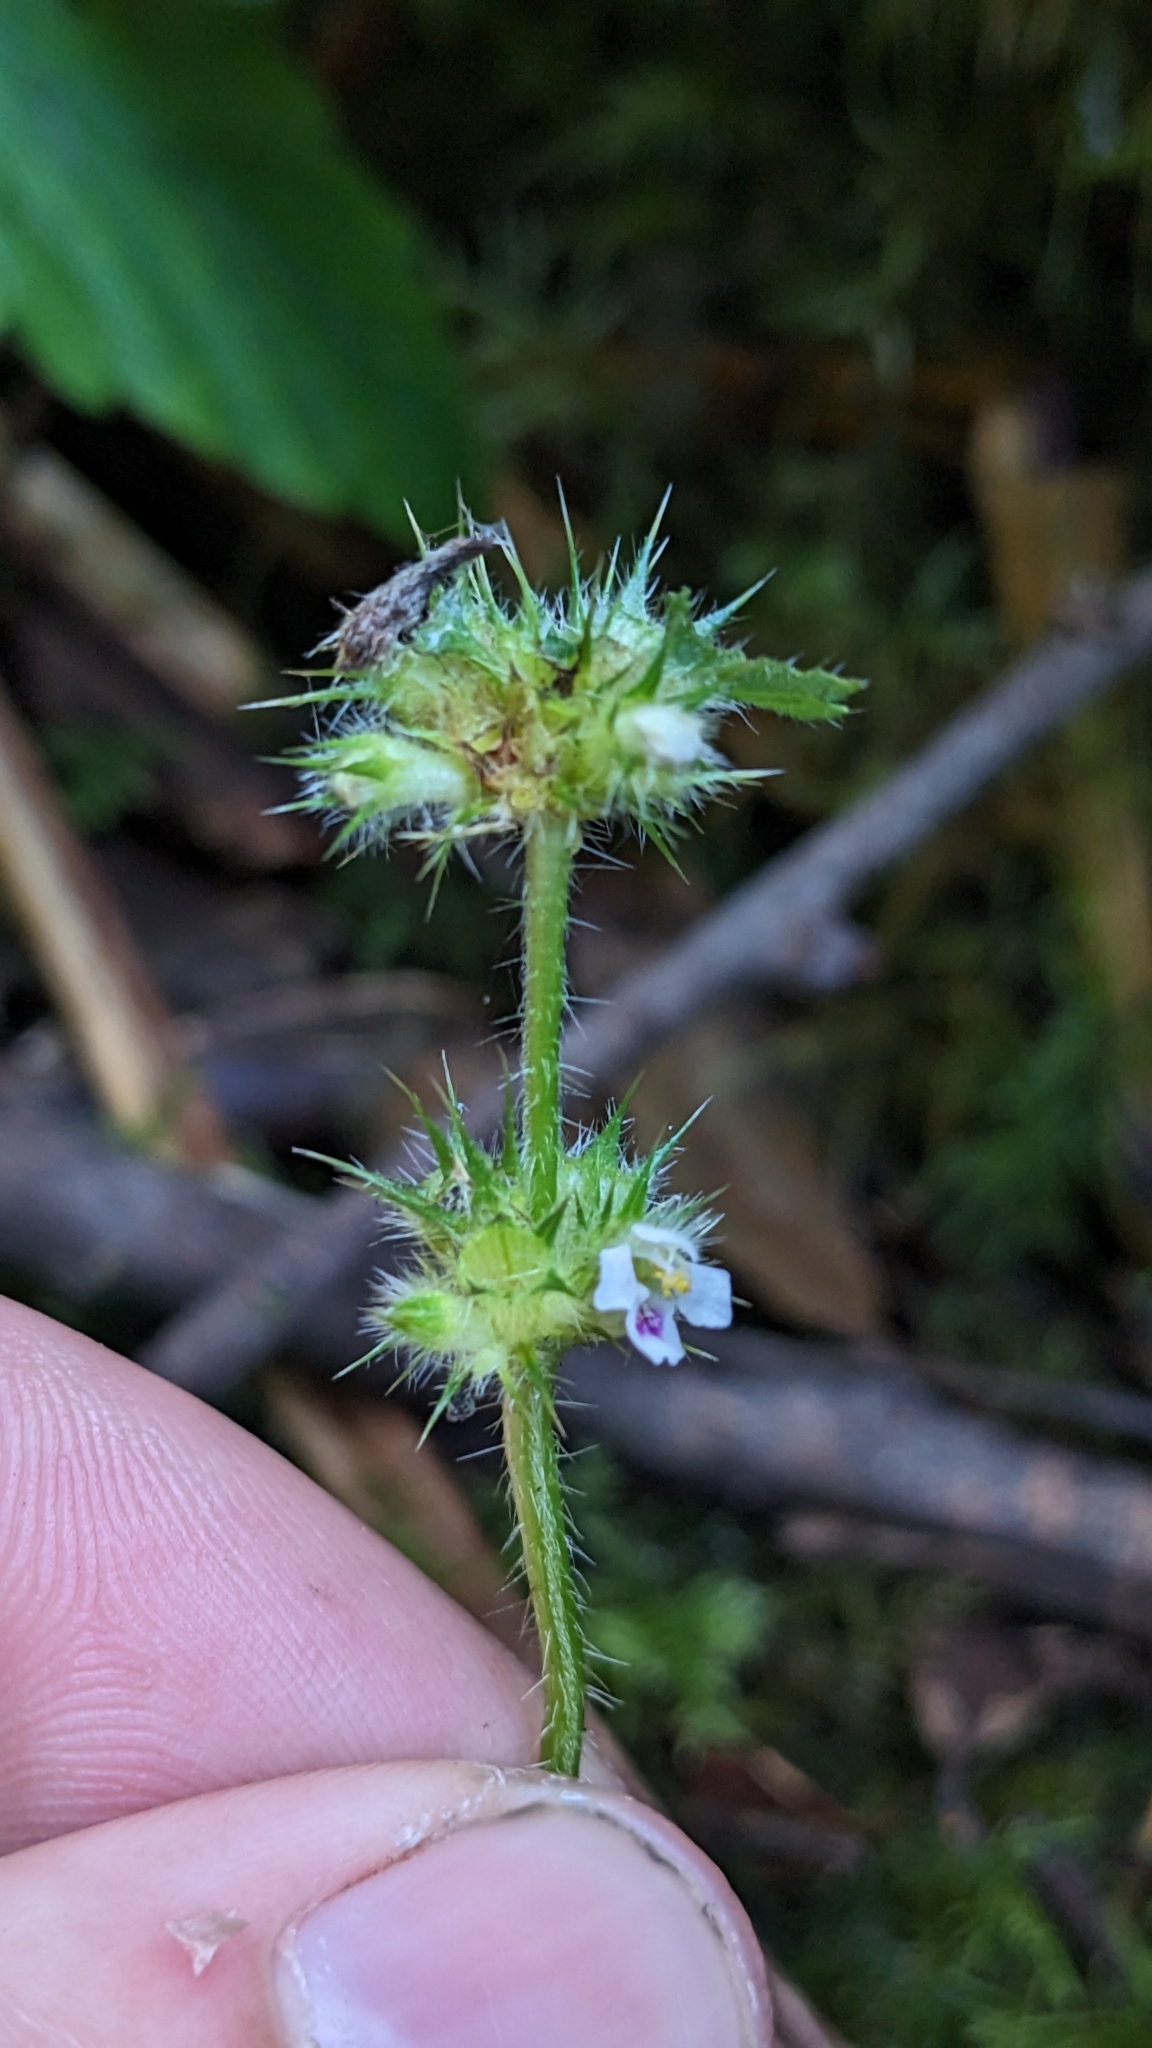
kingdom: Plantae
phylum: Tracheophyta
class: Magnoliopsida
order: Lamiales
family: Lamiaceae
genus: Galeopsis
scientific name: Galeopsis tetrahit
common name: Common hemp-nettle
